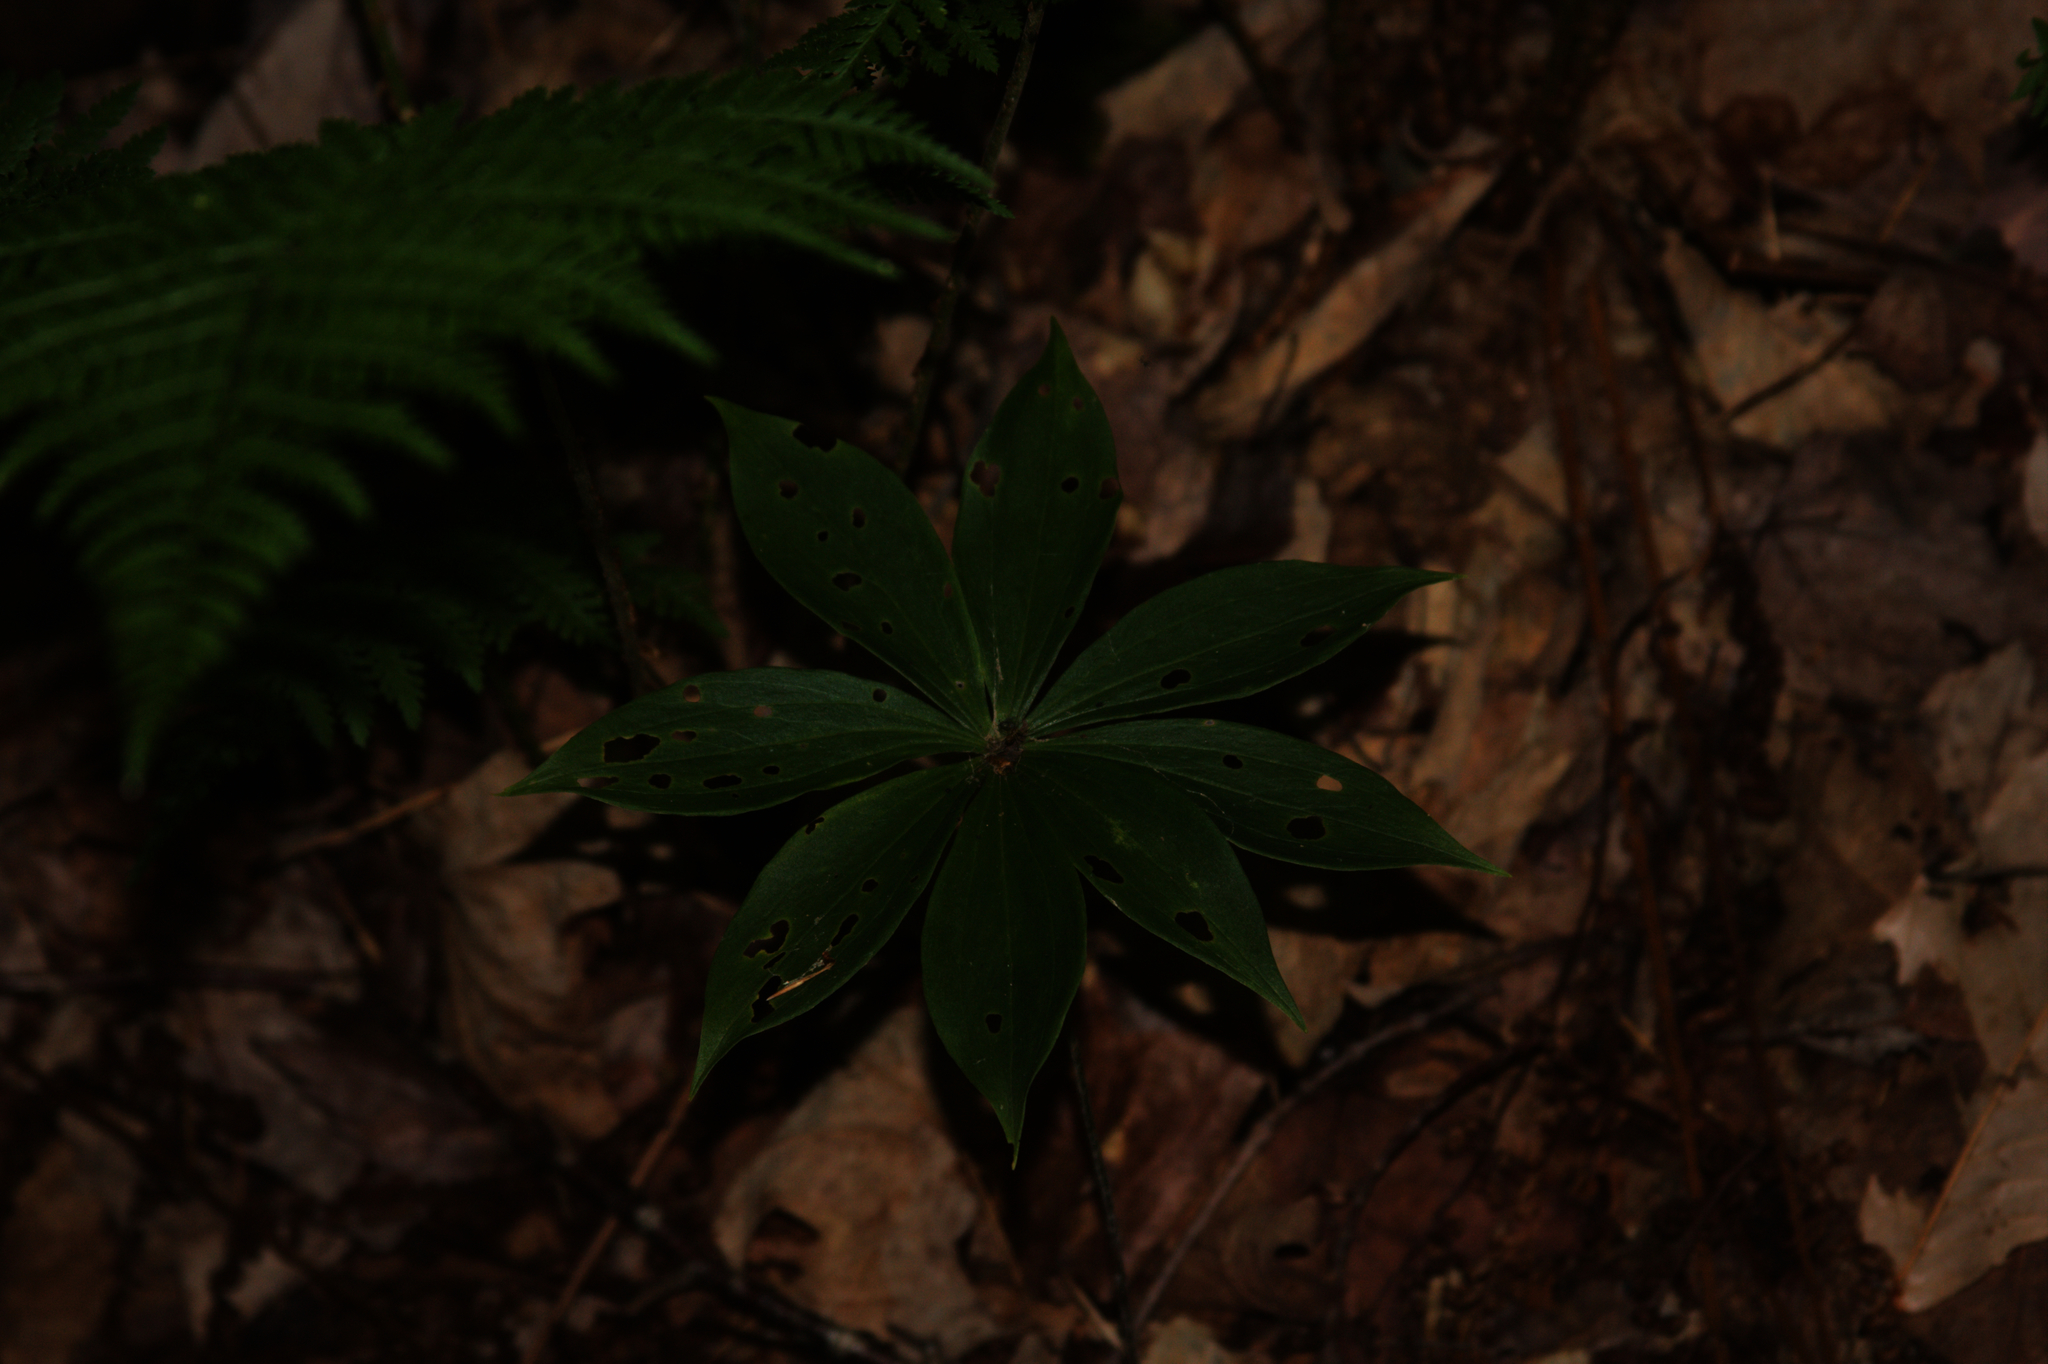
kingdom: Plantae
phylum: Tracheophyta
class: Liliopsida
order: Liliales
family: Liliaceae
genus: Medeola
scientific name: Medeola virginiana
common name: Indian cucumber-root
